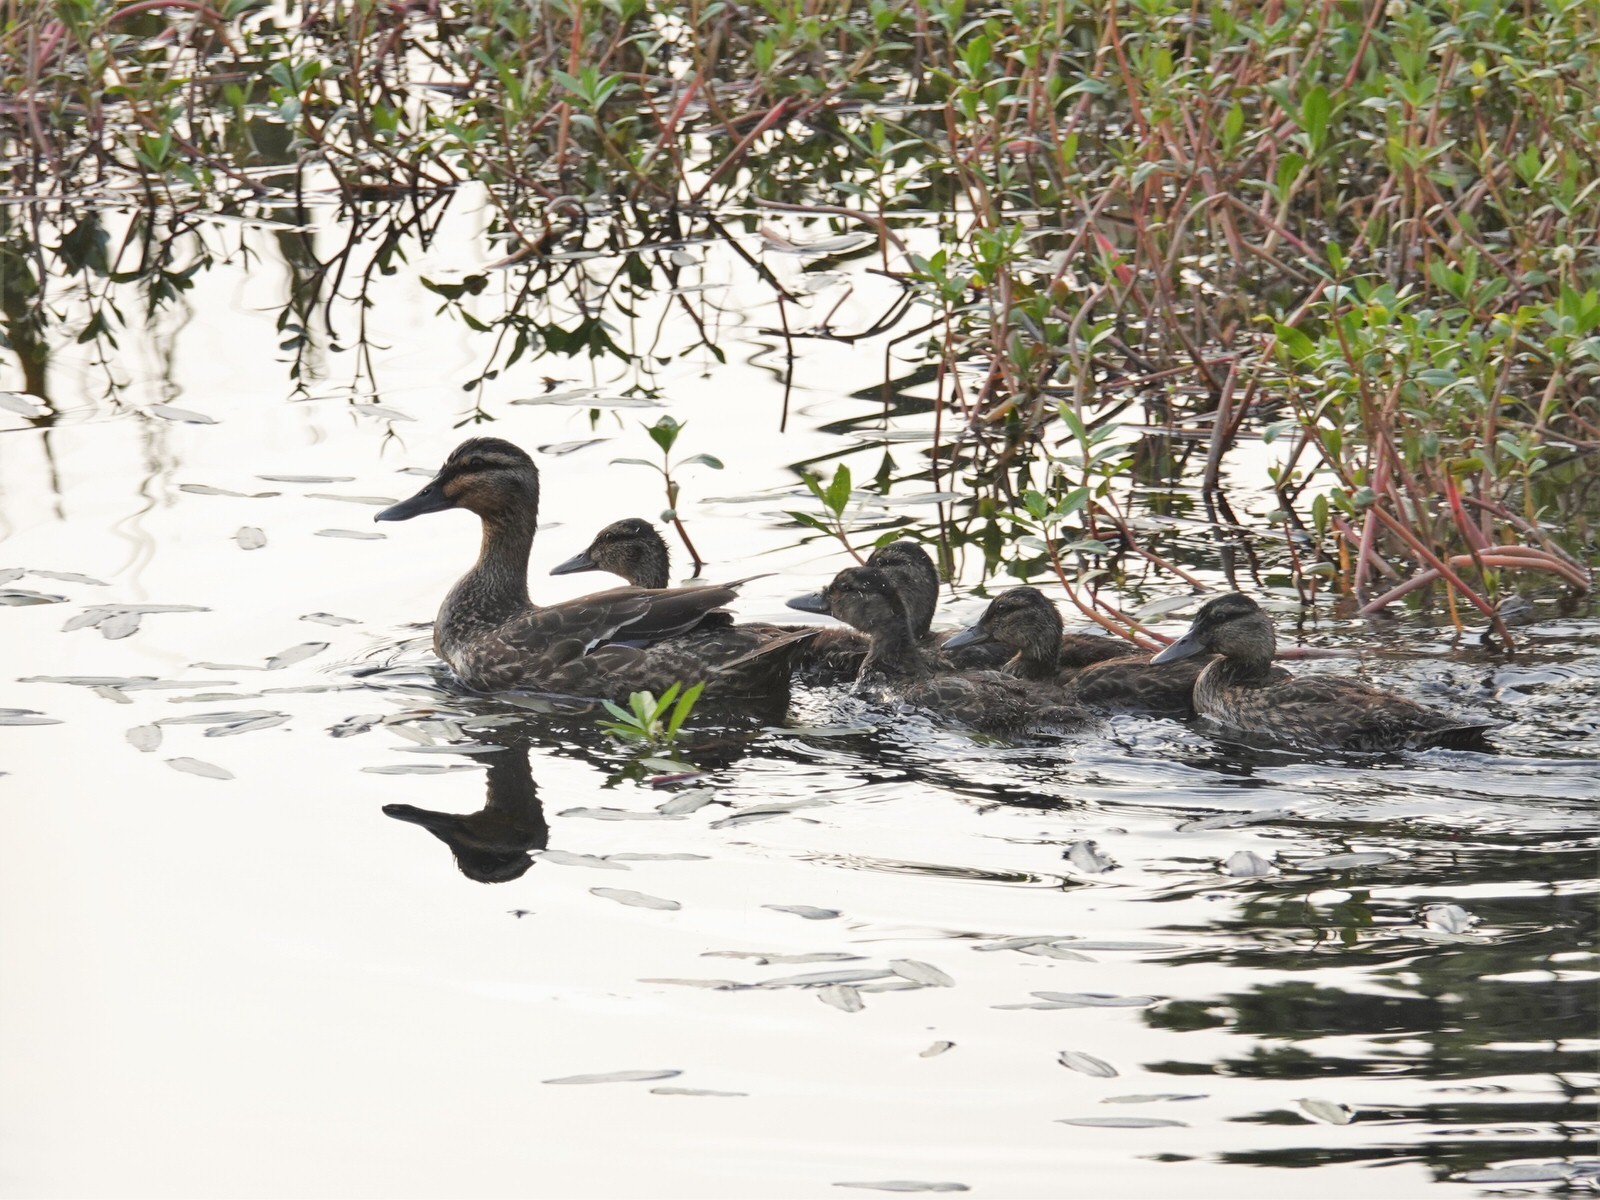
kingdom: Animalia
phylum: Chordata
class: Aves
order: Anseriformes
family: Anatidae
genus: Anas
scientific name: Anas
